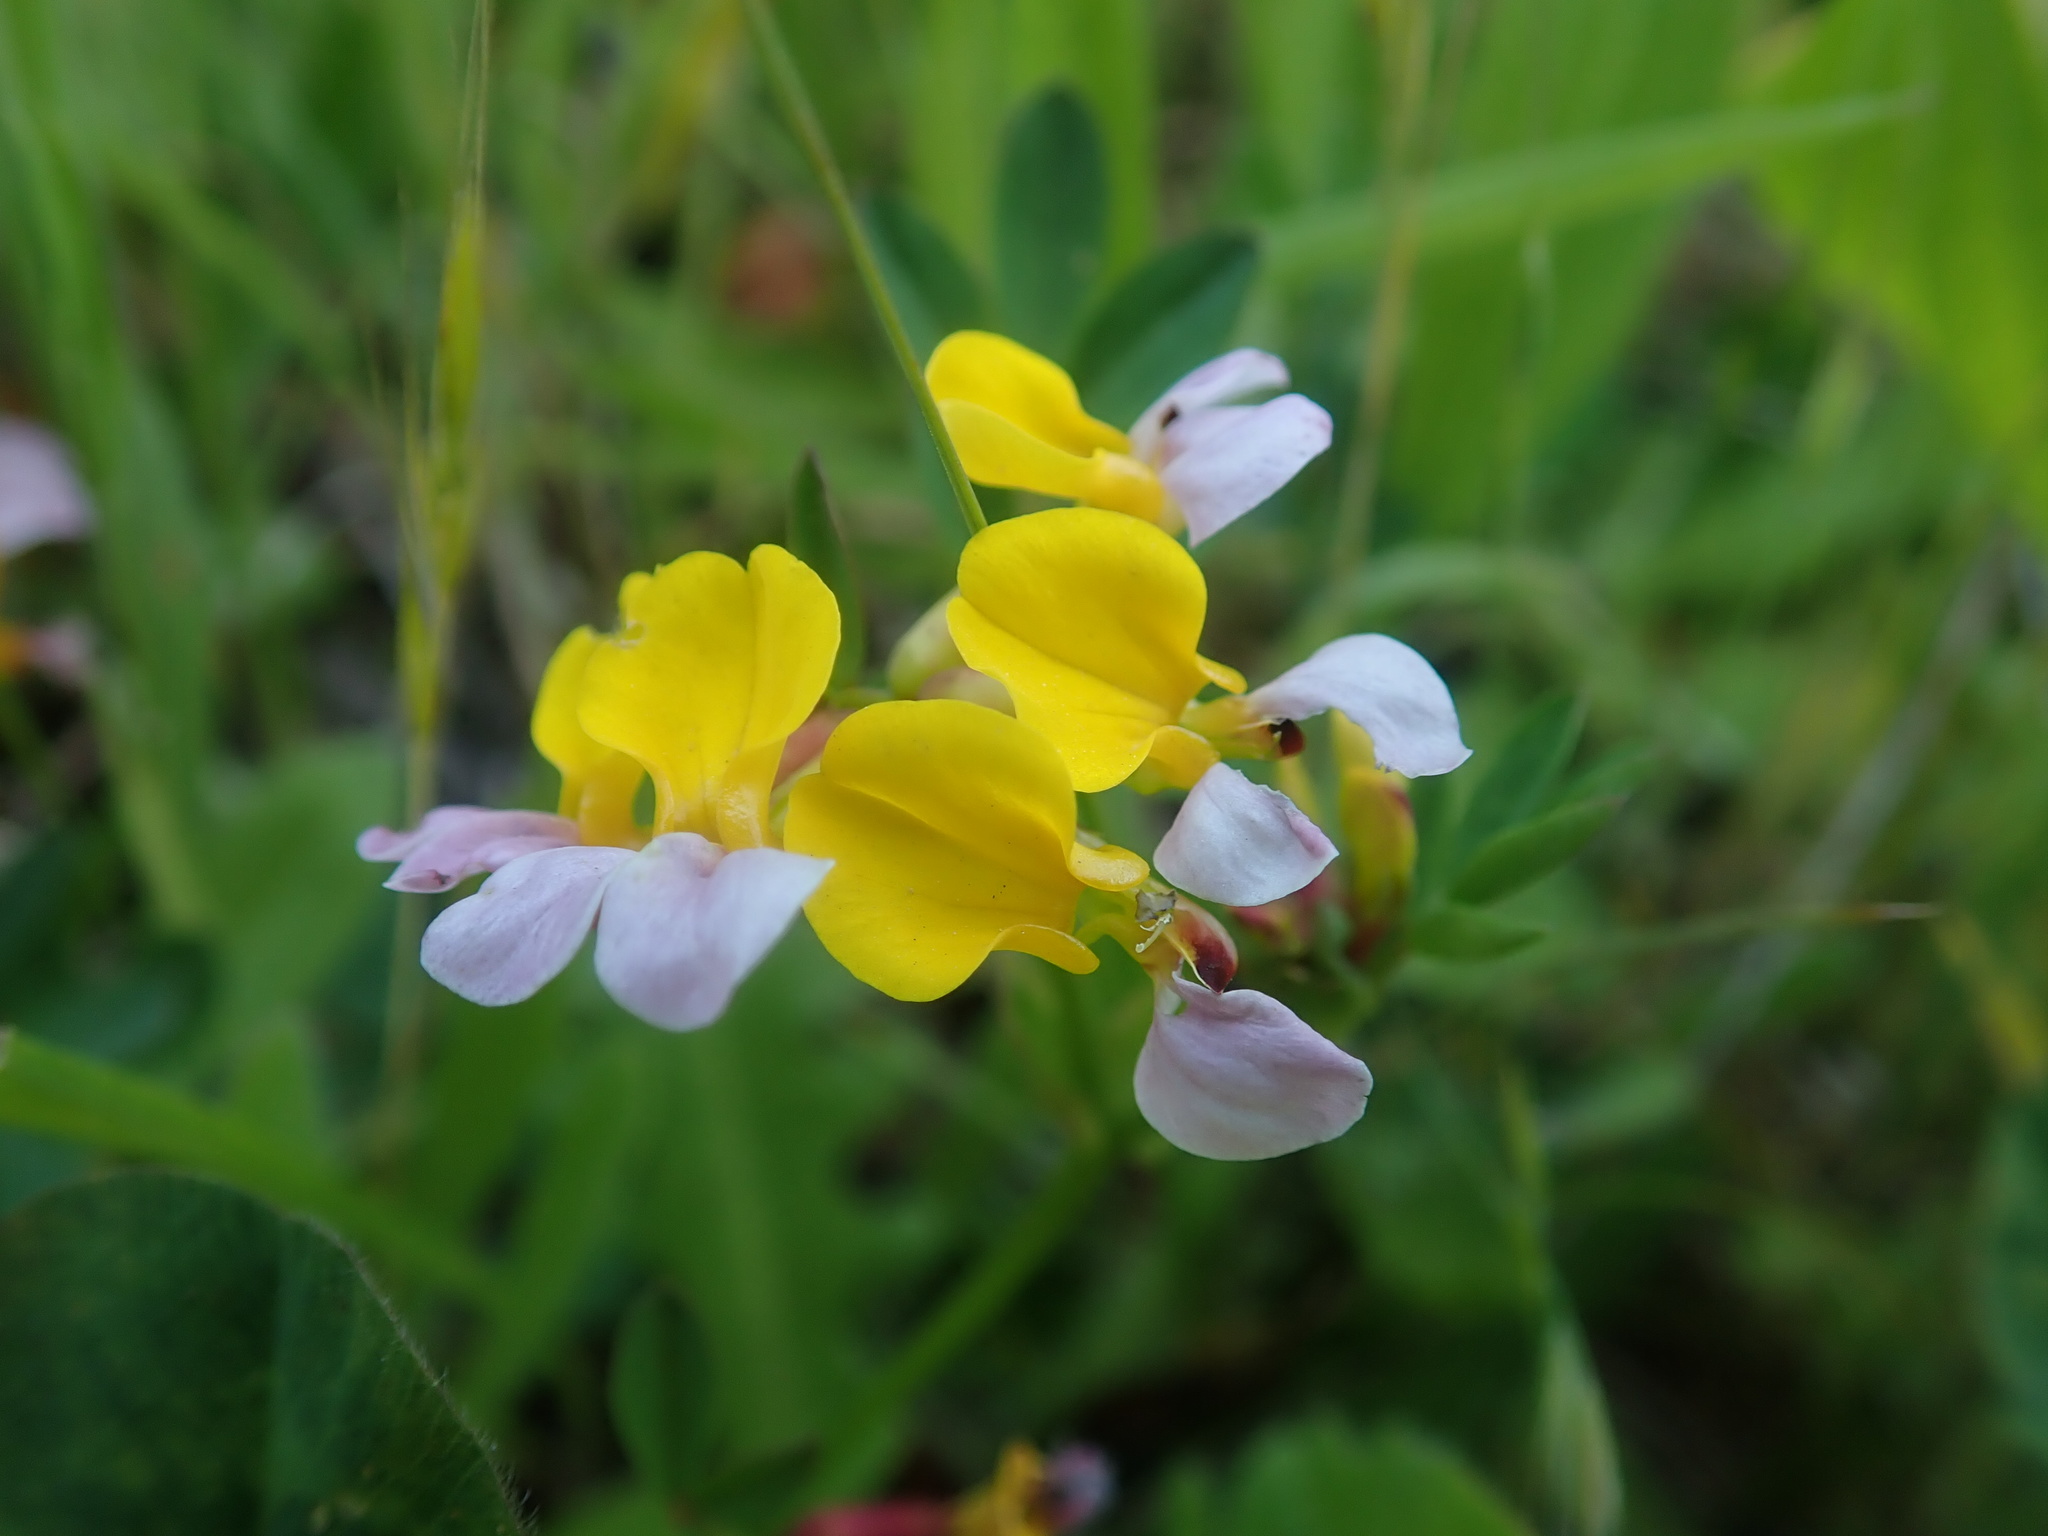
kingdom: Plantae
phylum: Tracheophyta
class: Magnoliopsida
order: Fabales
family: Fabaceae
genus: Hosackia
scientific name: Hosackia gracilis
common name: Seaside bird's-foot lotus
